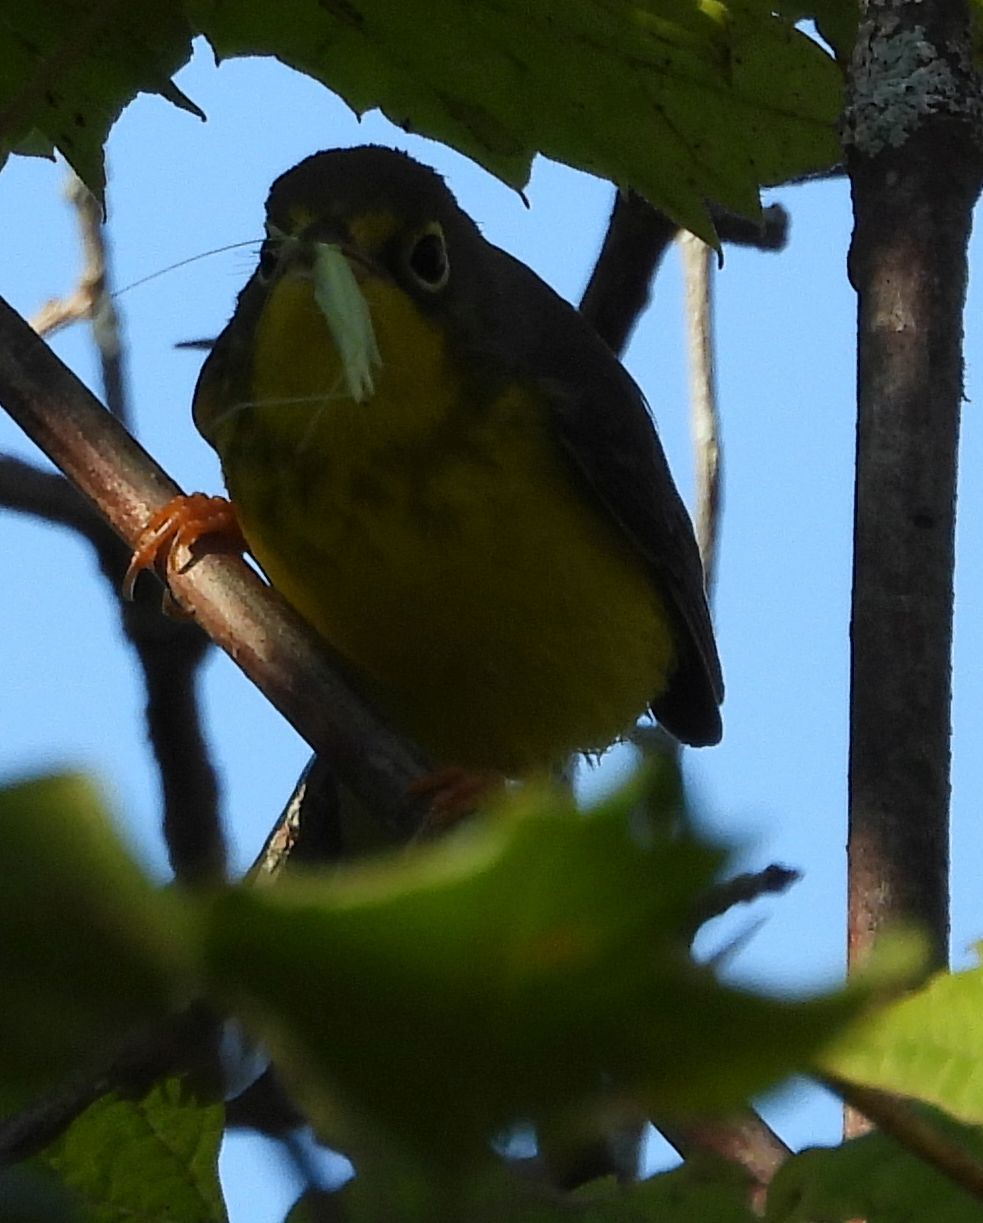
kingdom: Animalia
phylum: Chordata
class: Aves
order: Passeriformes
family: Parulidae
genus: Cardellina
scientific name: Cardellina canadensis
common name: Canada warbler
